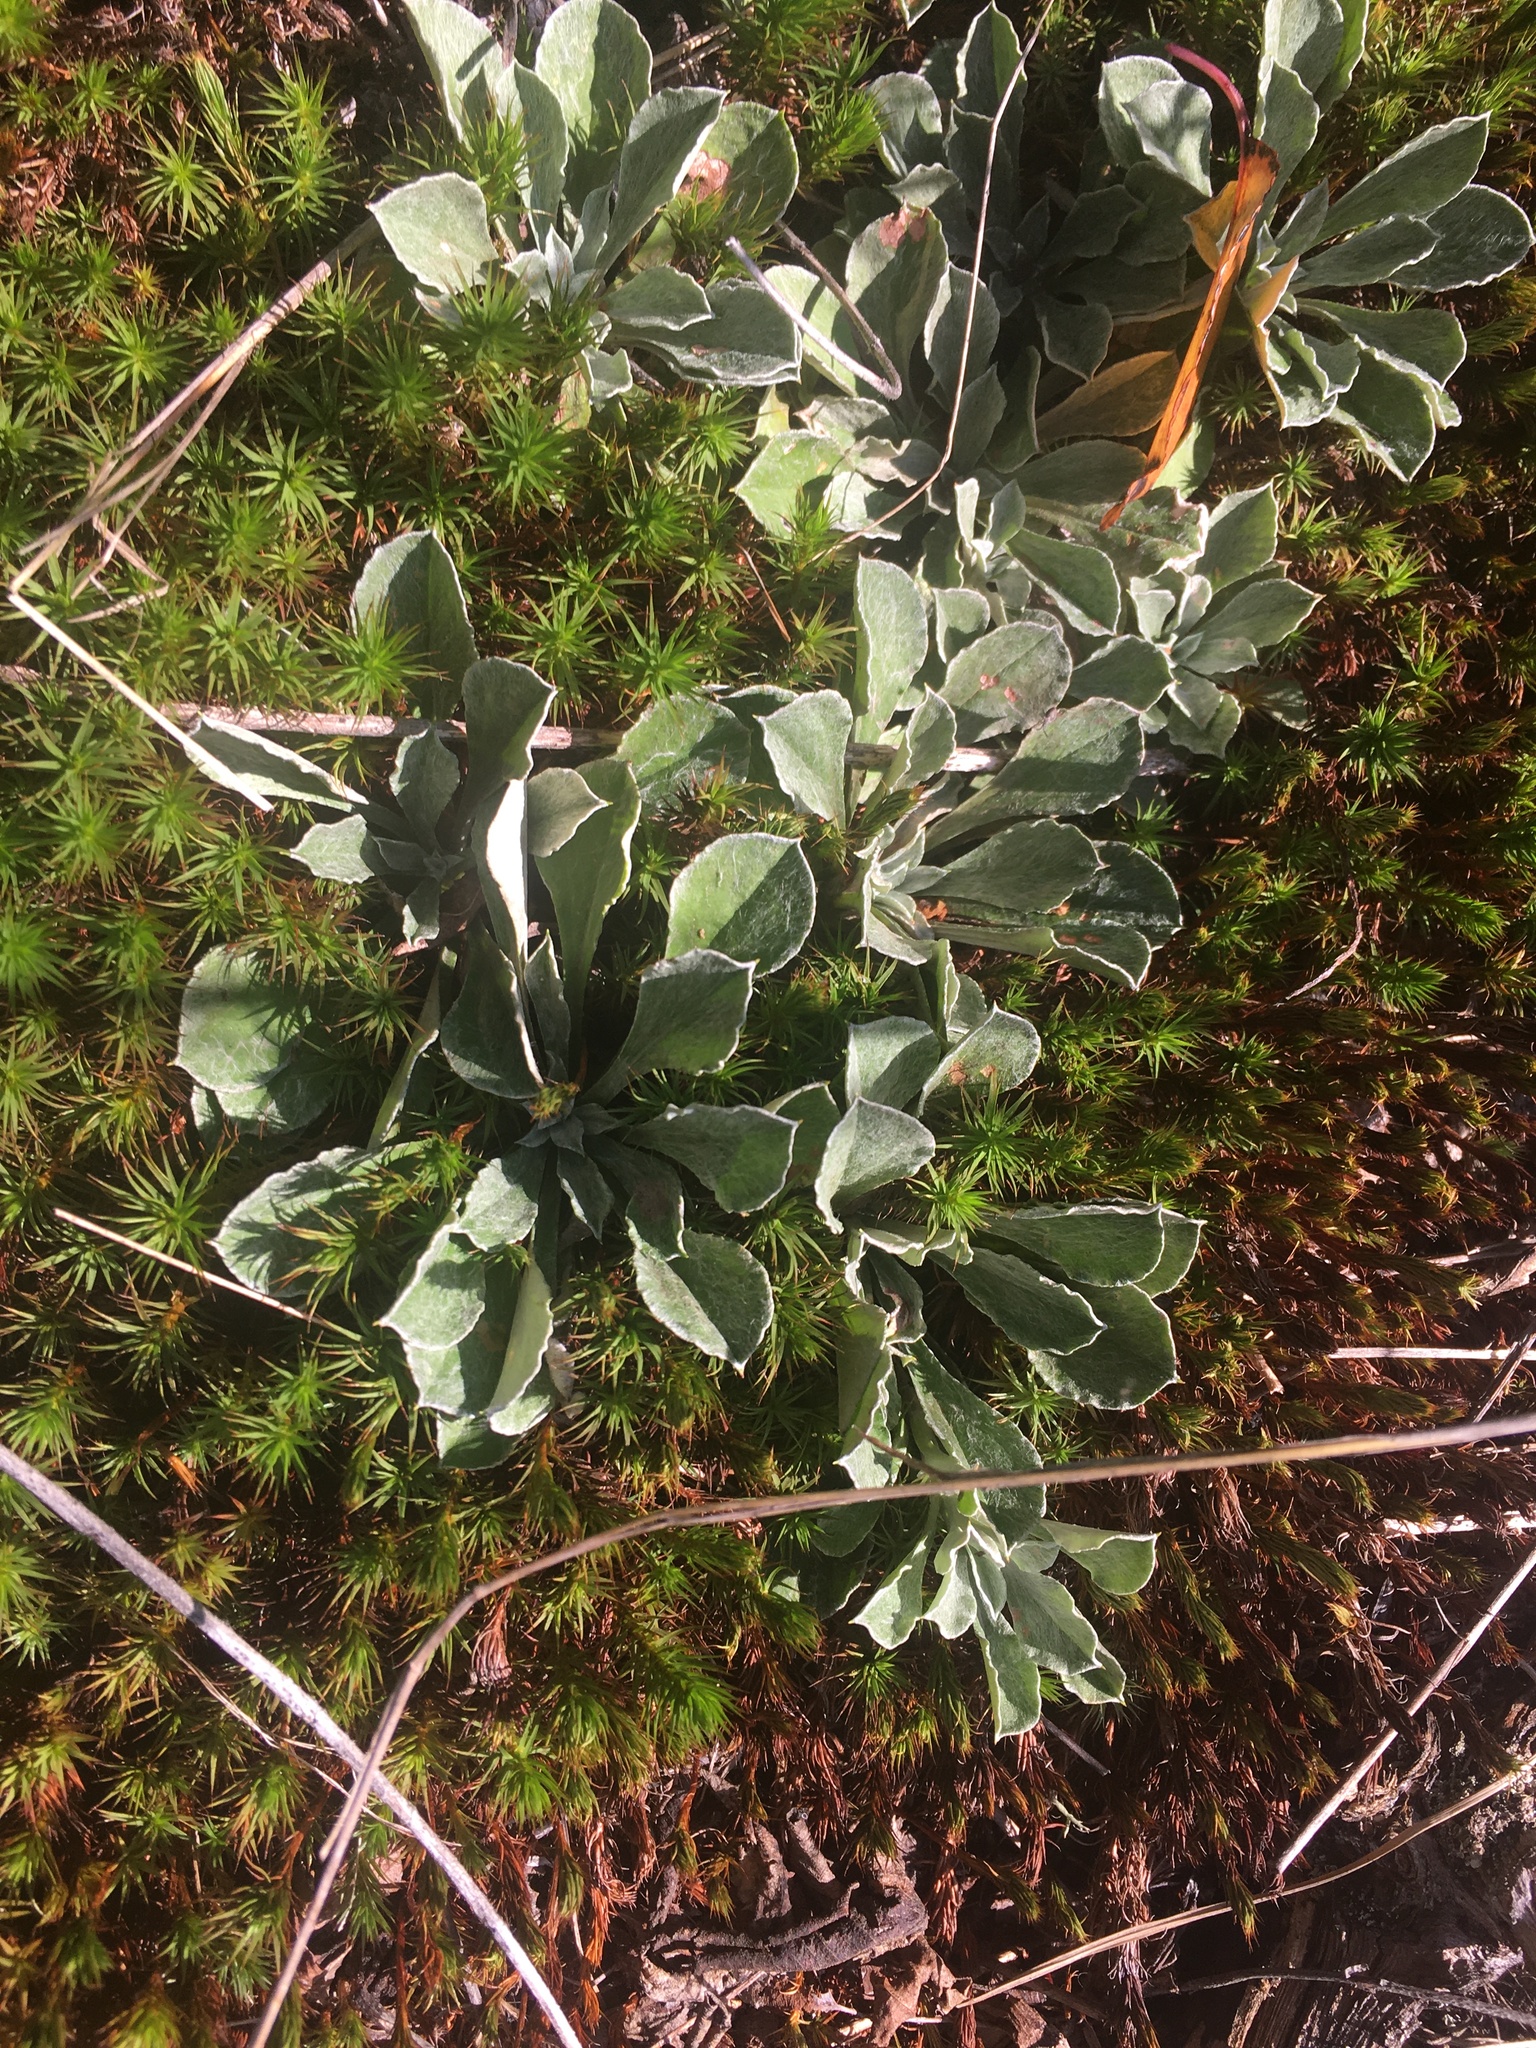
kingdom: Plantae
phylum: Tracheophyta
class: Magnoliopsida
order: Caryophyllales
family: Caryophyllaceae
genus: Silene
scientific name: Silene coronaria
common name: Rose campion
